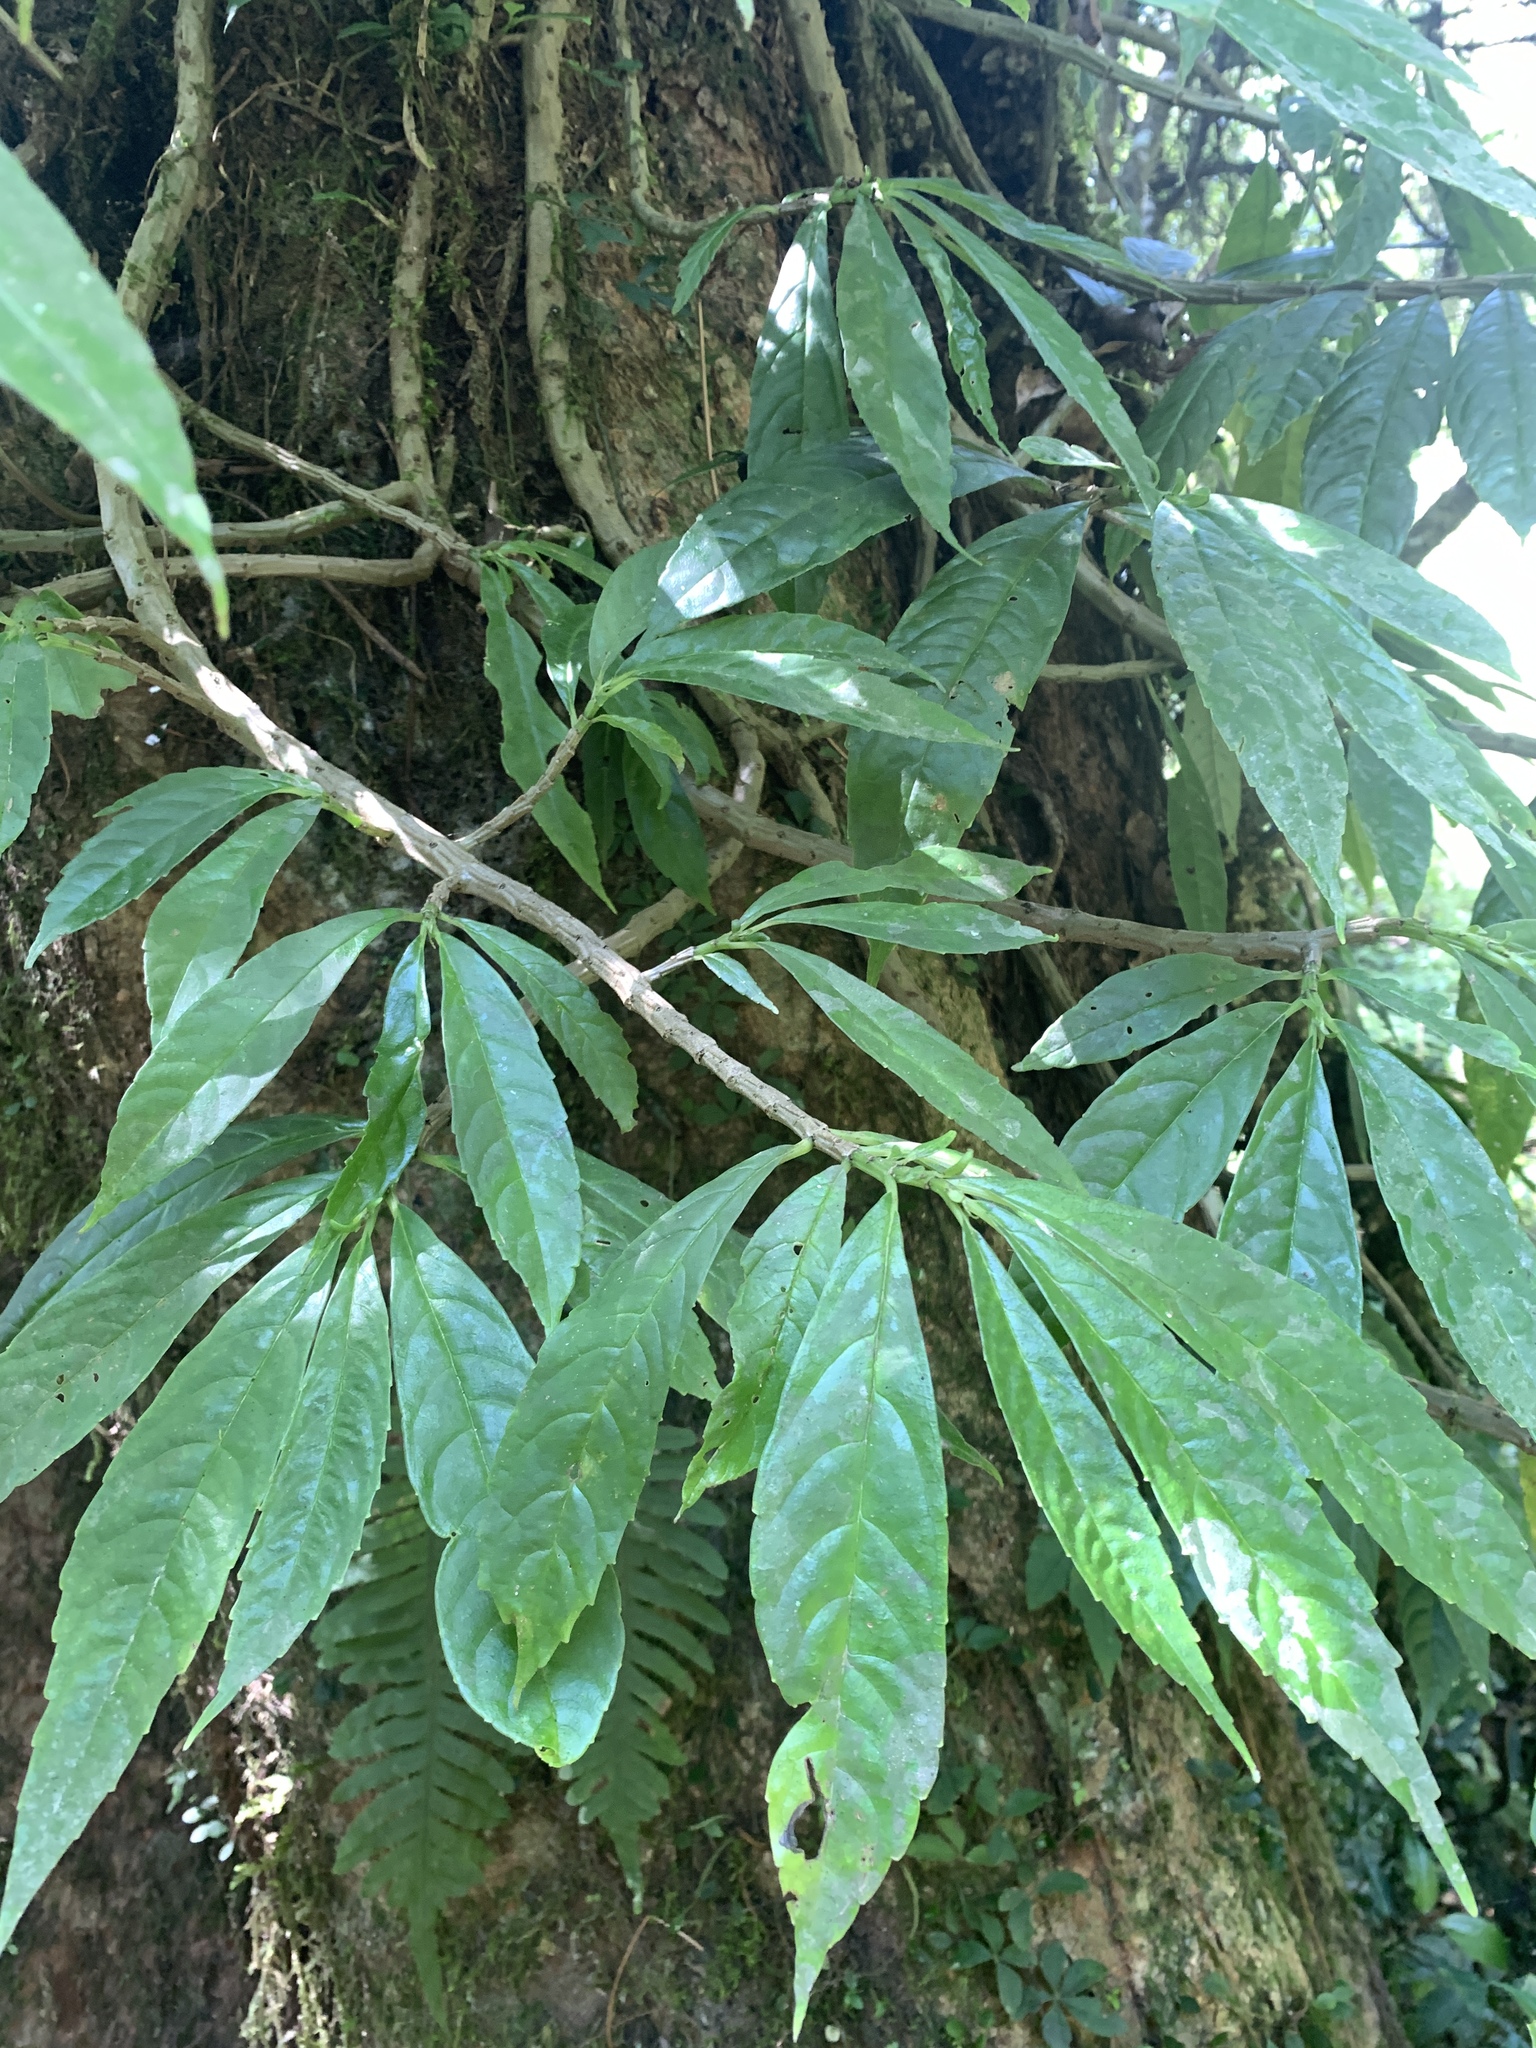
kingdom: Plantae
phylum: Tracheophyta
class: Magnoliopsida
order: Rosales
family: Urticaceae
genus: Procris
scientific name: Procris
